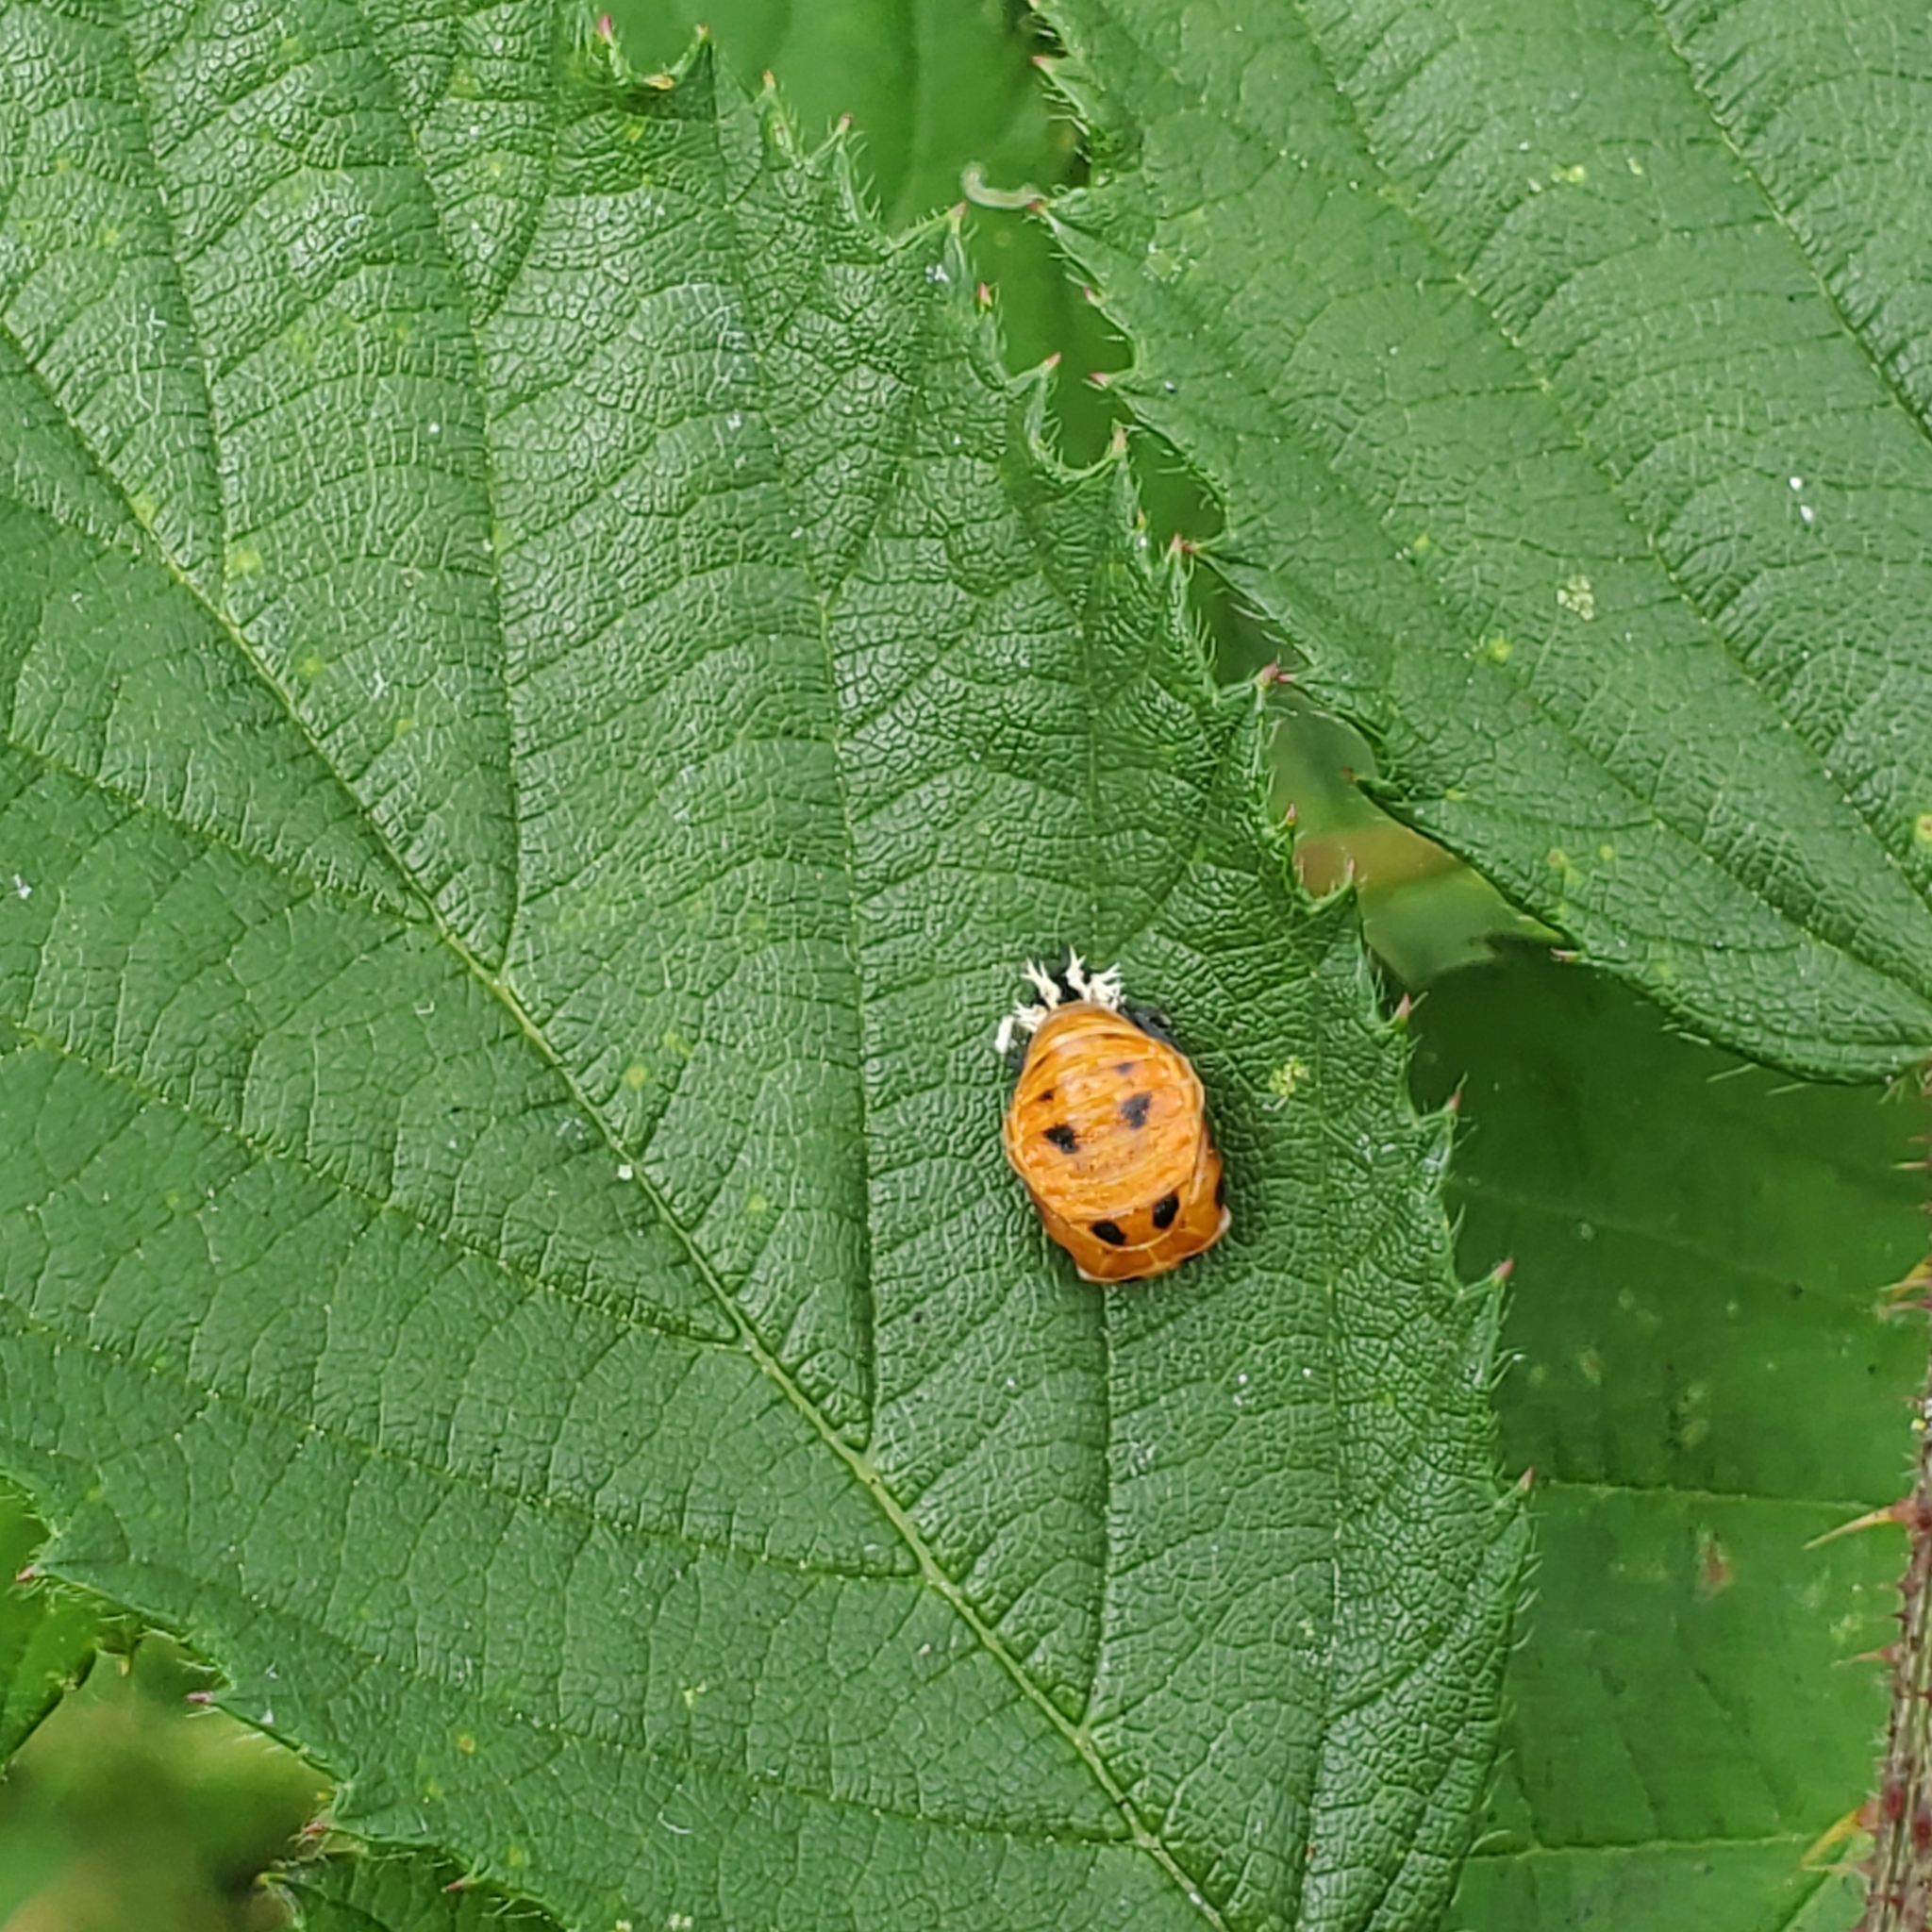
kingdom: Animalia
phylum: Arthropoda
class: Insecta
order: Coleoptera
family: Coccinellidae
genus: Harmonia
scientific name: Harmonia axyridis
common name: Harlequin ladybird
